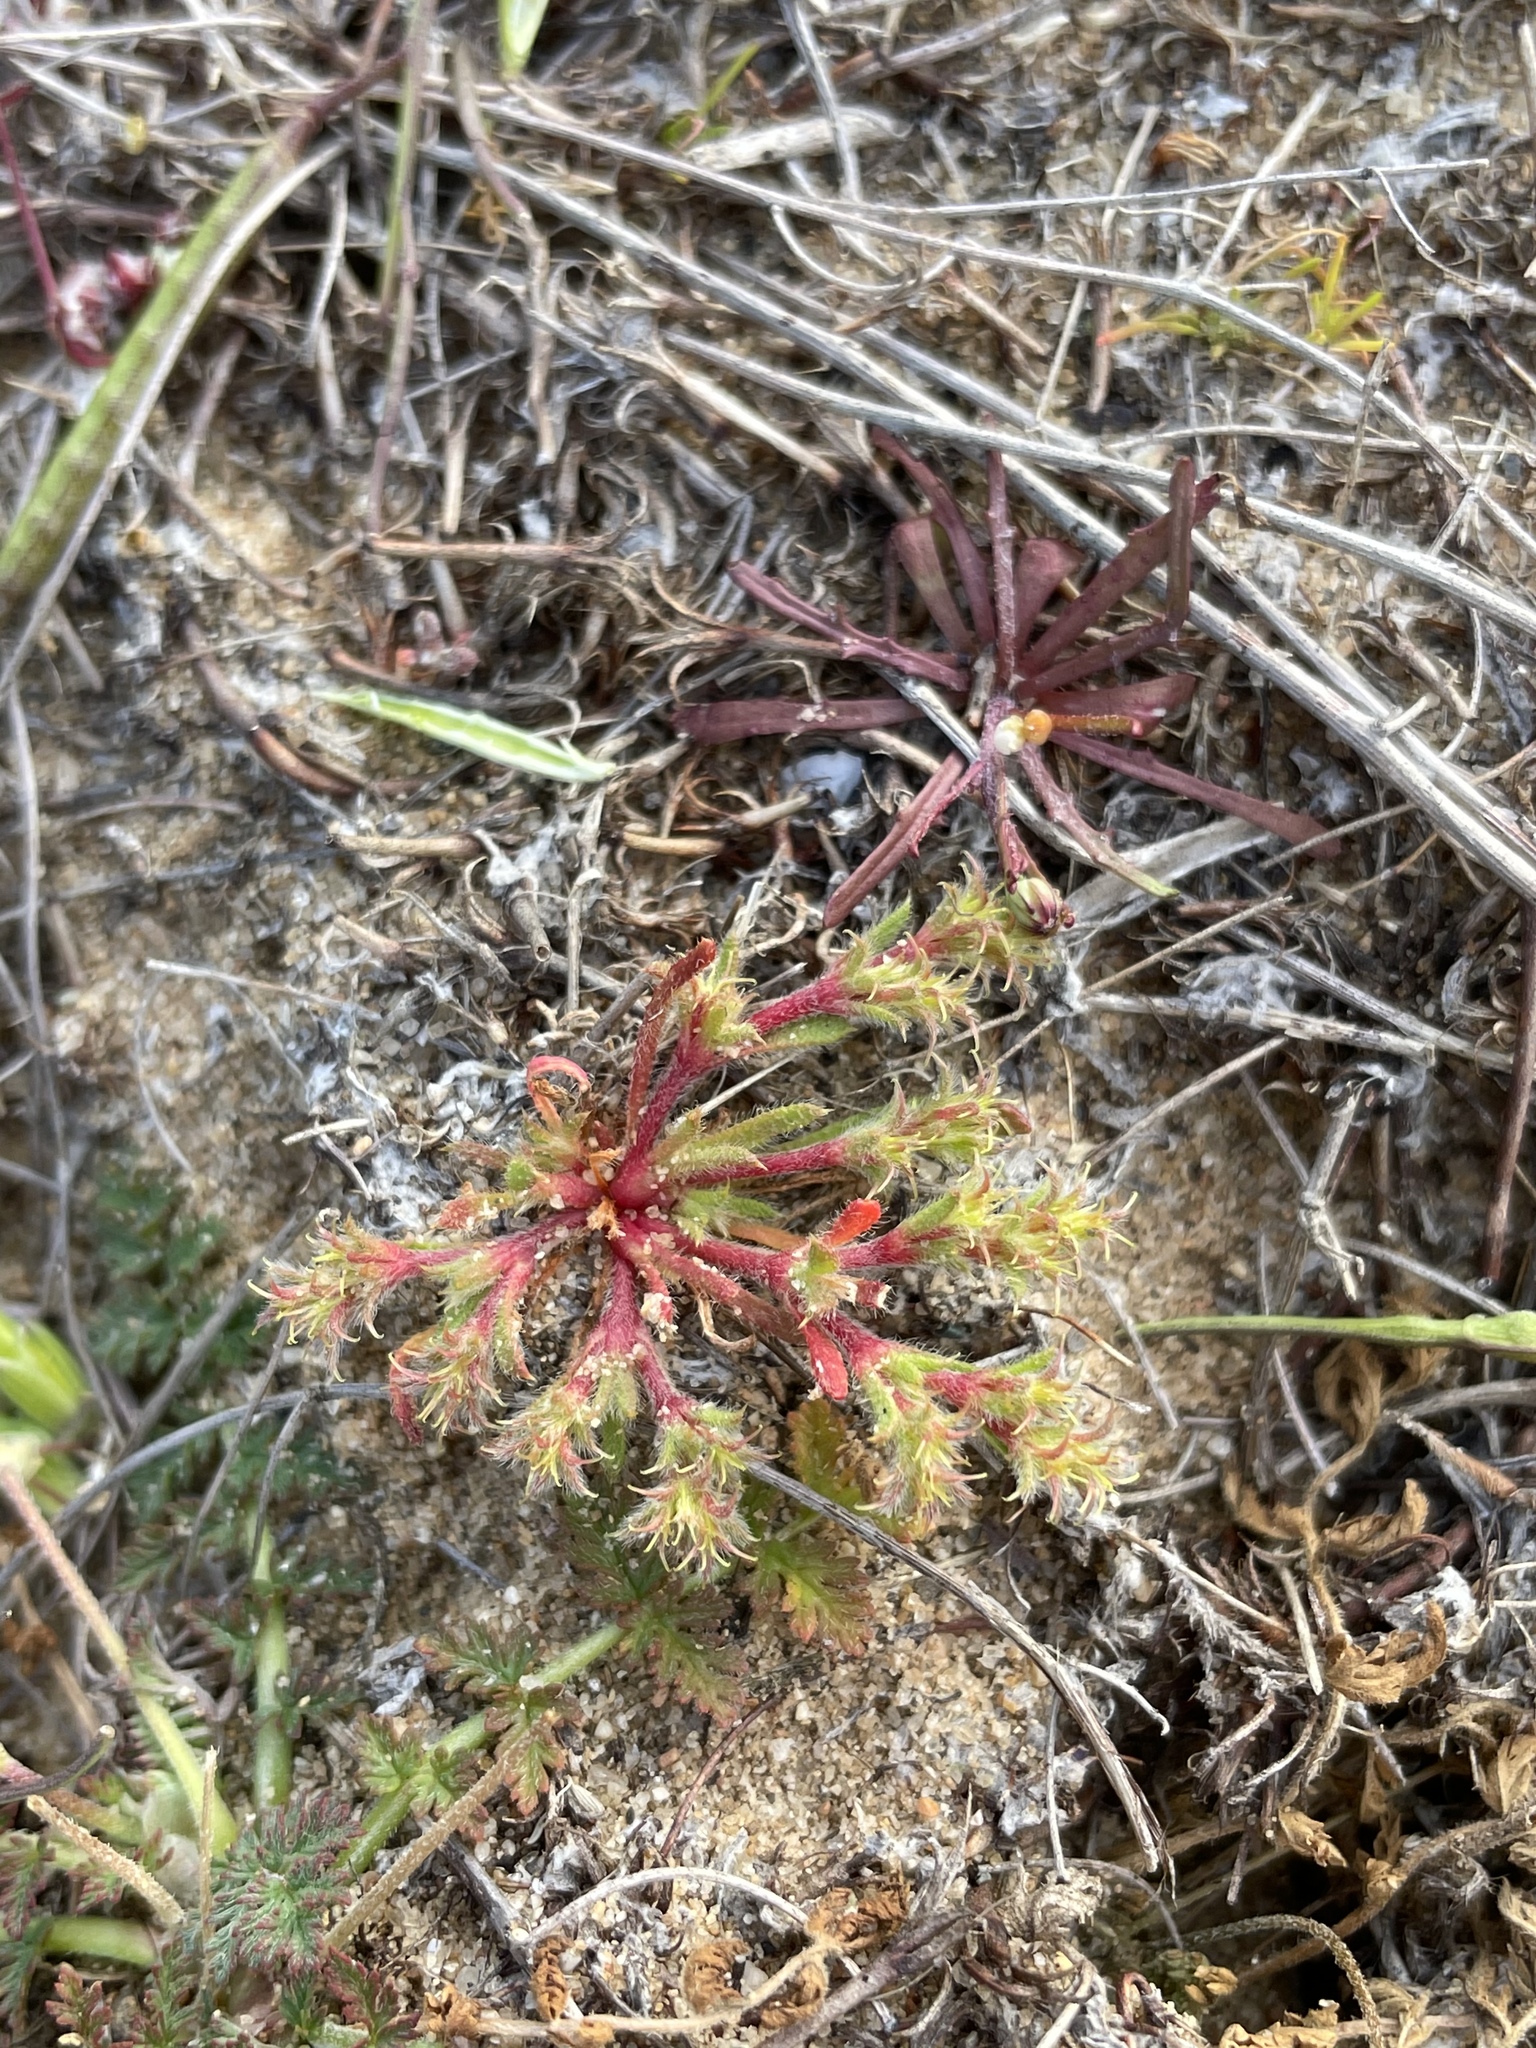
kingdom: Plantae
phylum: Tracheophyta
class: Magnoliopsida
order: Caryophyllales
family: Polygonaceae
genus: Lastarriaea
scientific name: Lastarriaea coriacea
